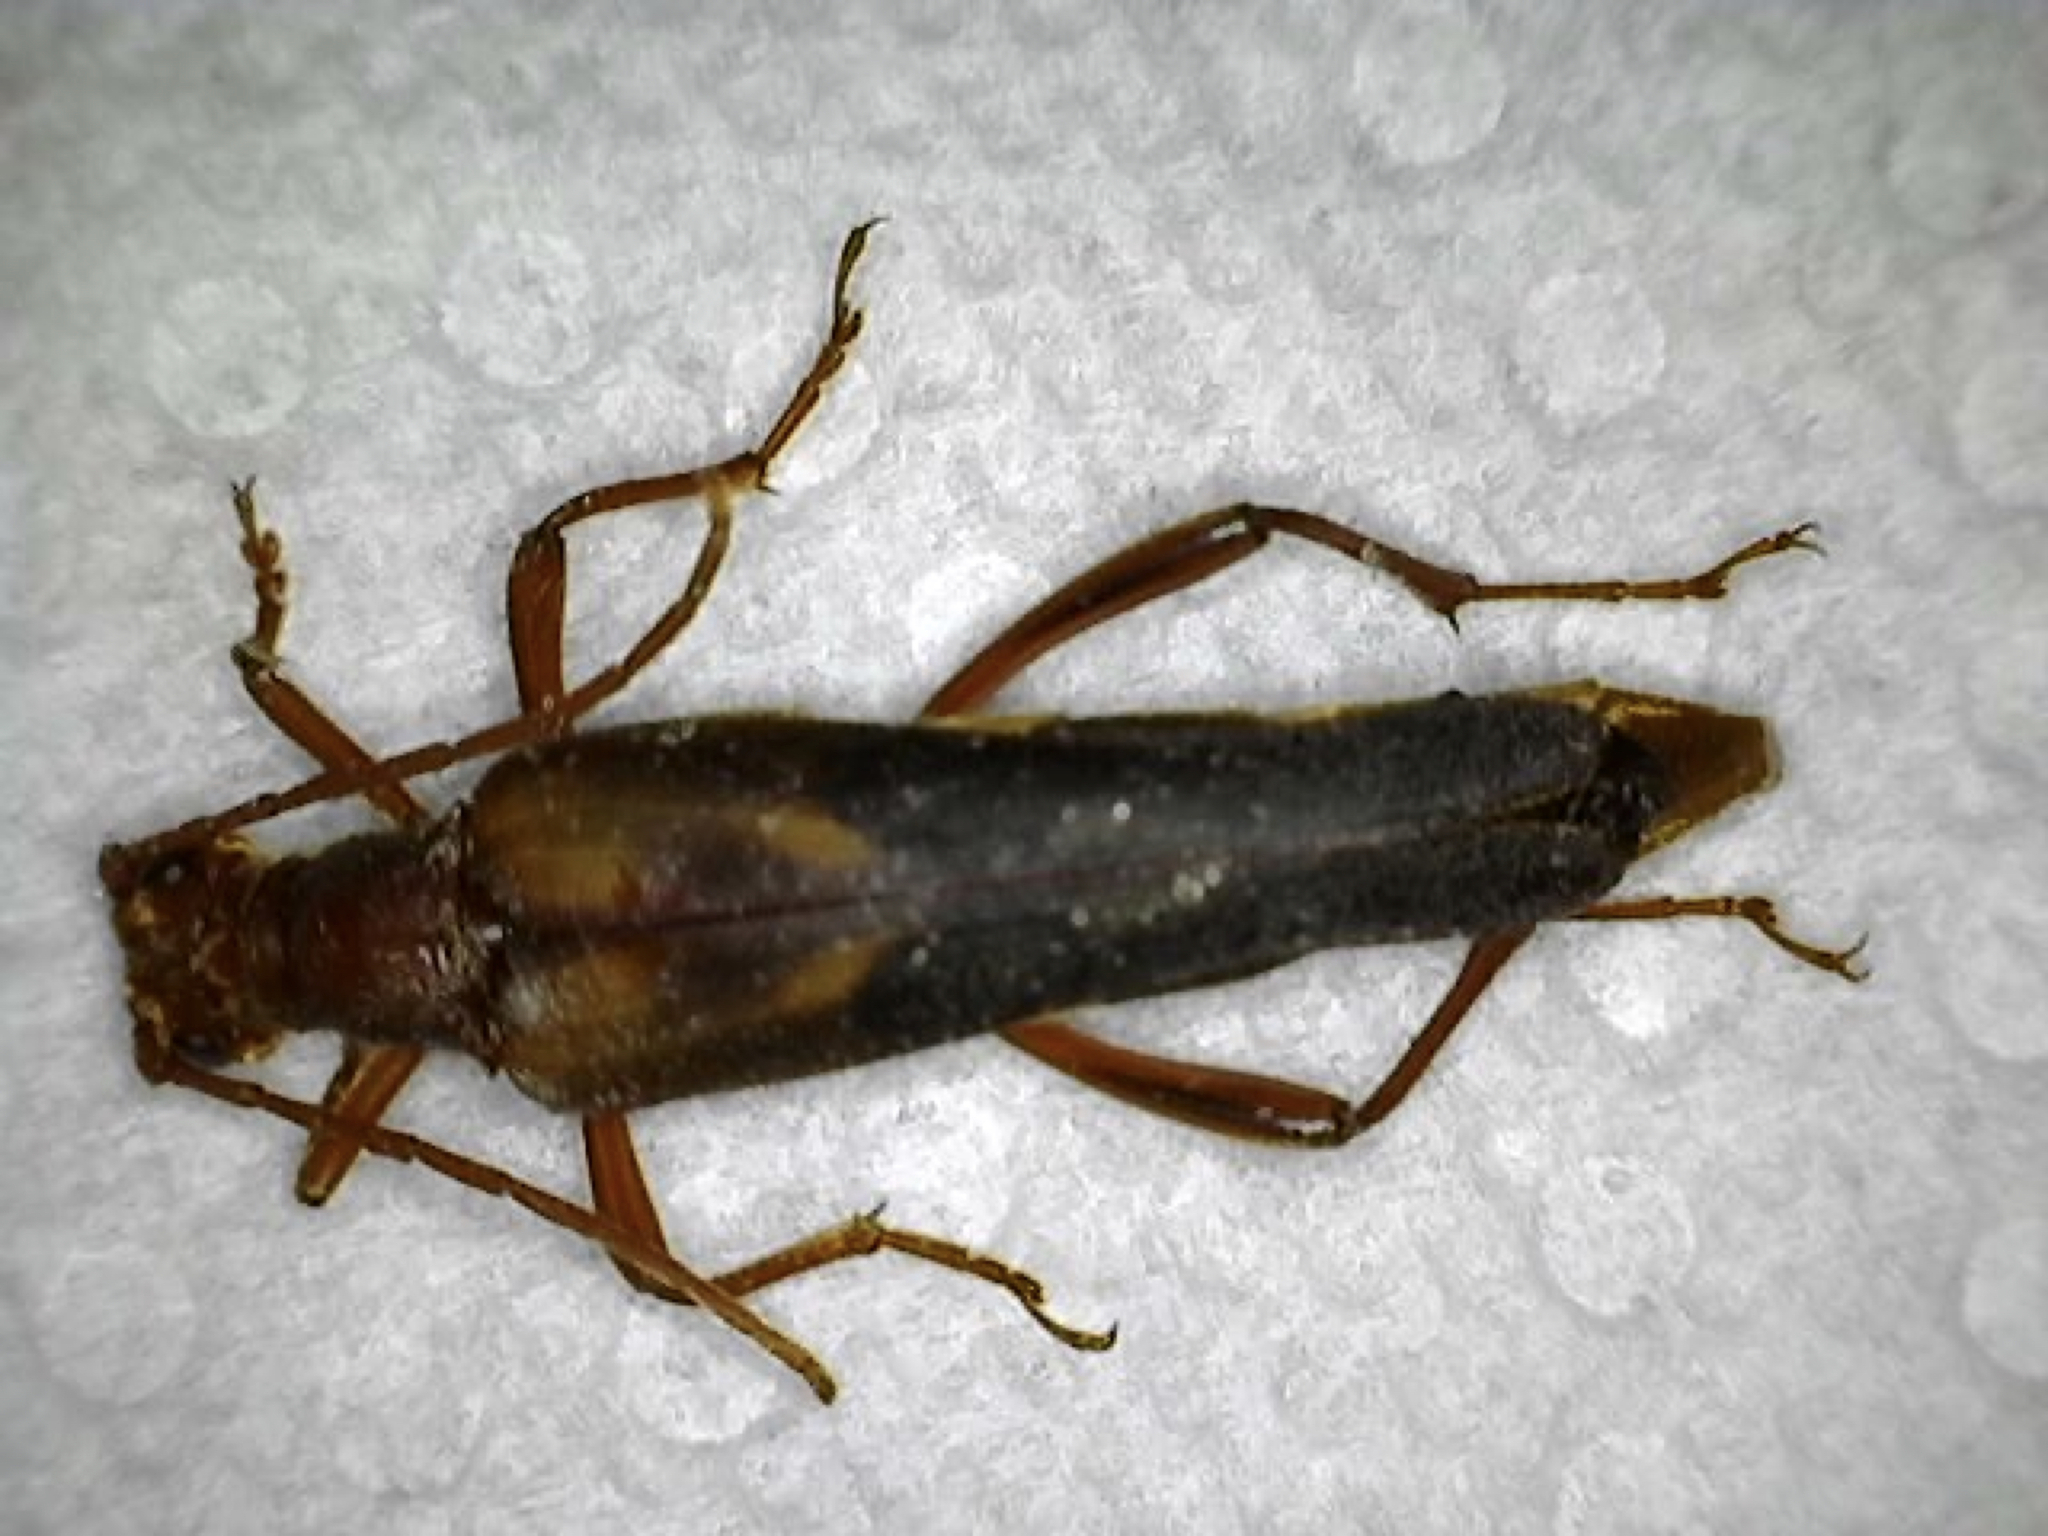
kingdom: Animalia
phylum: Arthropoda
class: Insecta
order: Coleoptera
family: Cerambycidae
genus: Bellamira
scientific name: Bellamira scalaris
